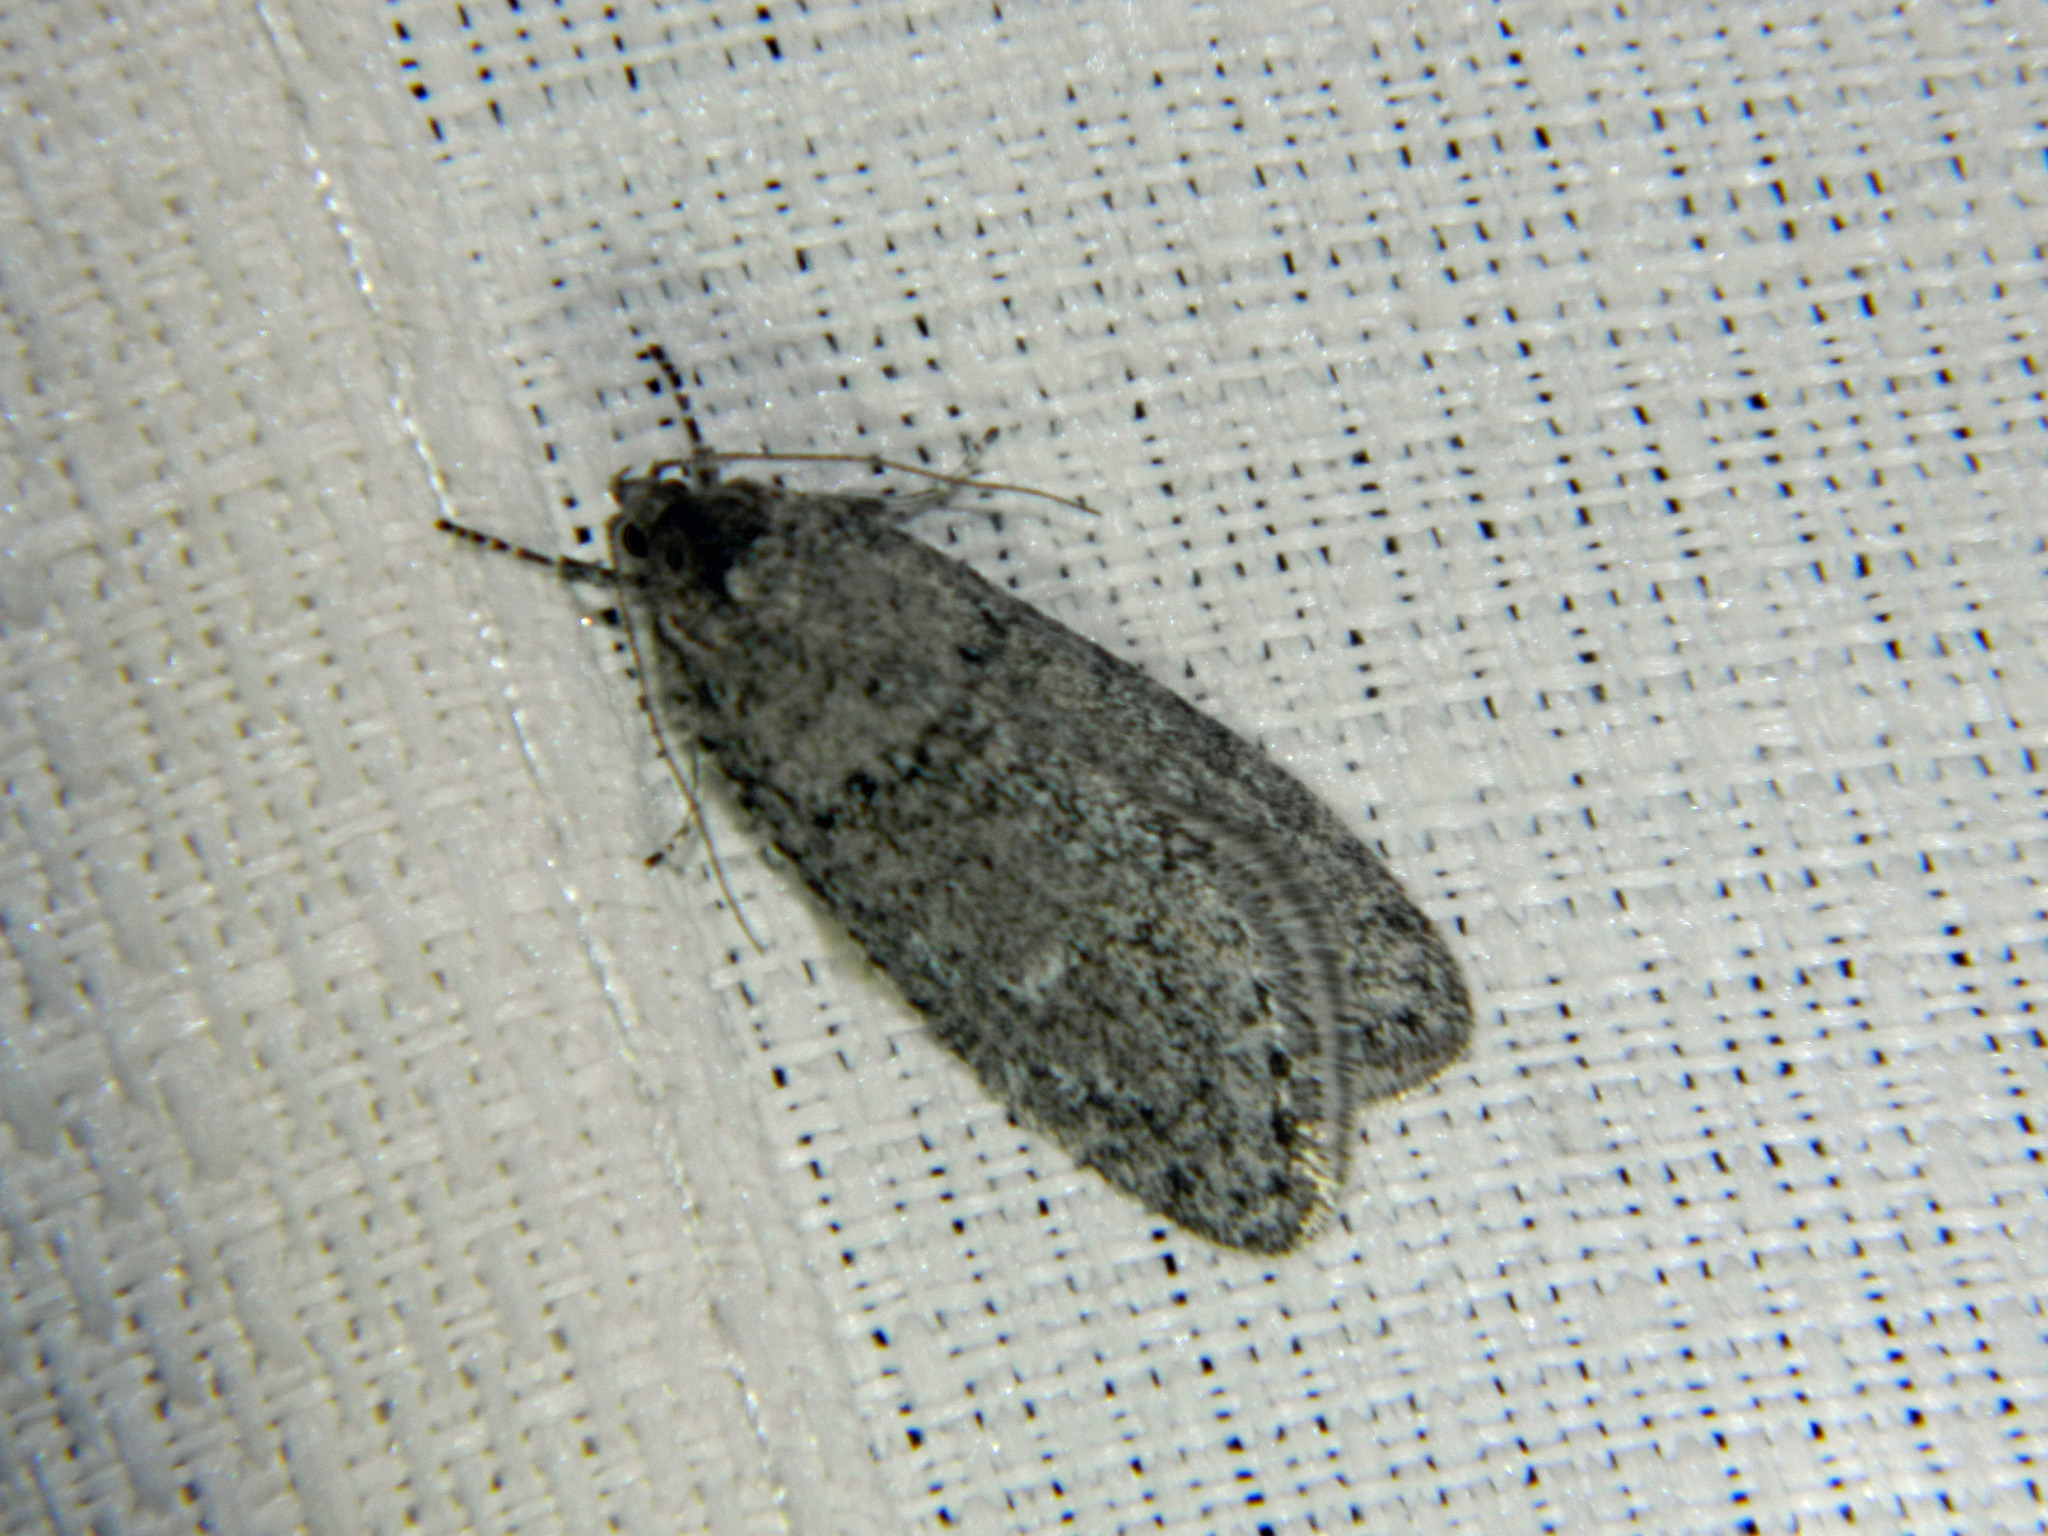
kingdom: Animalia
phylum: Arthropoda
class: Insecta
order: Lepidoptera
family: Depressariidae
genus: Semioscopis
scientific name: Semioscopis inornata
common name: Poplar micromoth
